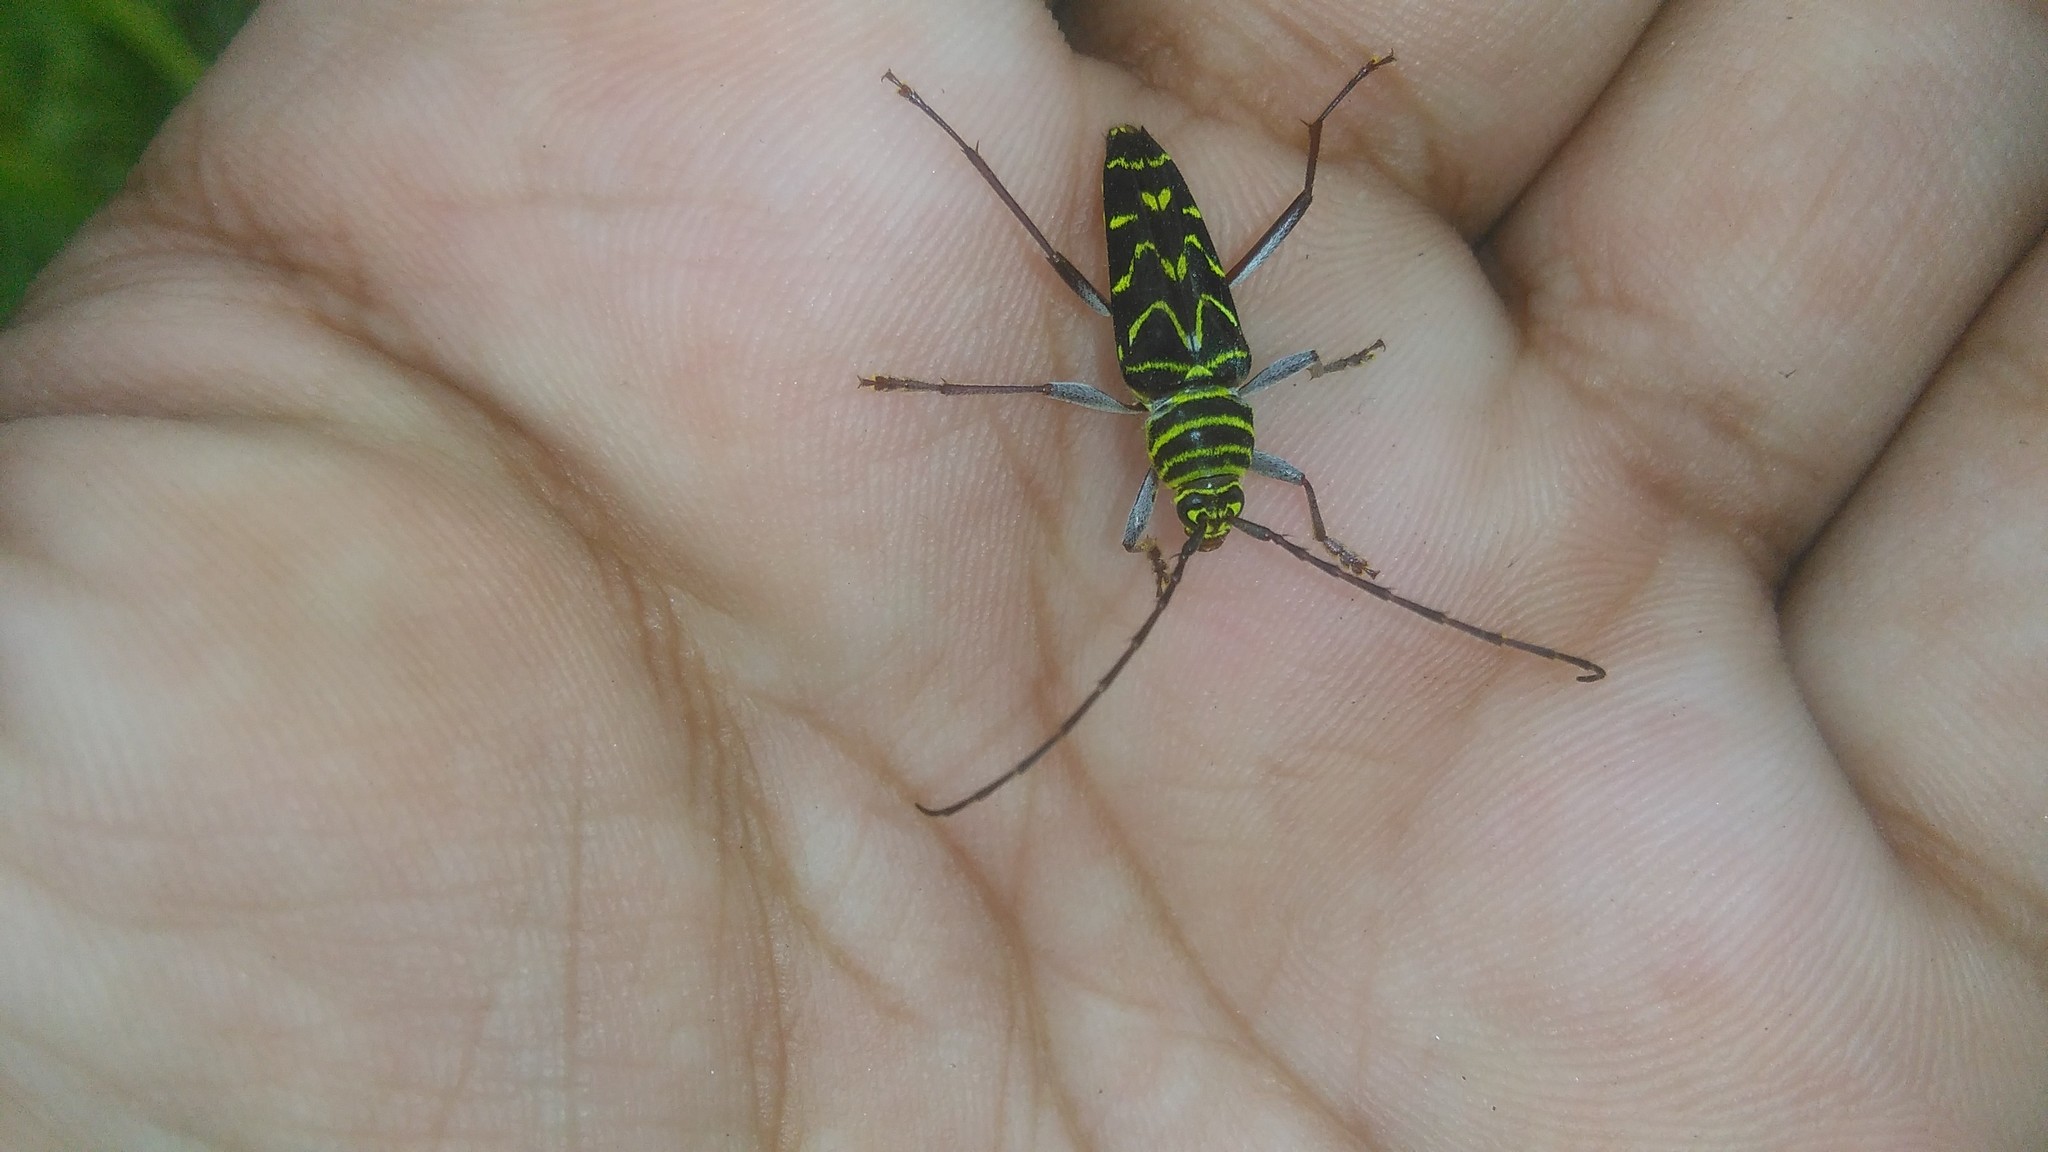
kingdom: Animalia
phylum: Arthropoda
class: Insecta
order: Coleoptera
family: Cerambycidae
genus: Megacyllene
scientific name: Megacyllene acuta
